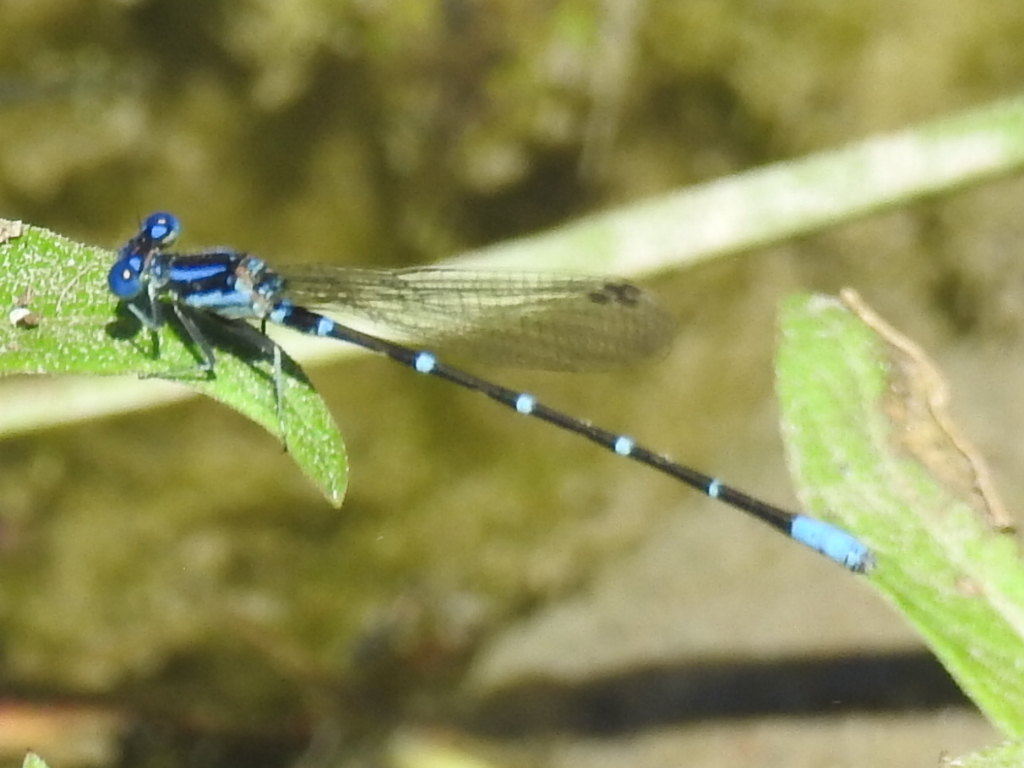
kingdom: Animalia
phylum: Arthropoda
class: Insecta
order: Odonata
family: Coenagrionidae
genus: Argia
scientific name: Argia sedula
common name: Blue-ringed dancer
